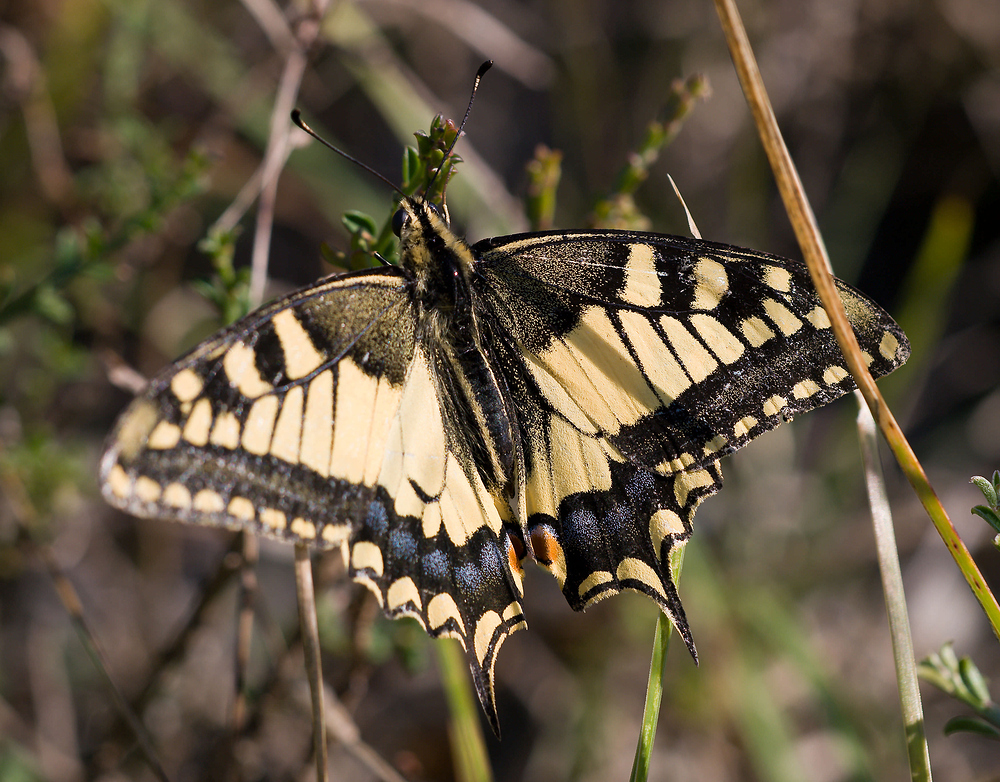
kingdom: Animalia
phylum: Arthropoda
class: Insecta
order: Lepidoptera
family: Papilionidae
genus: Papilio
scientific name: Papilio machaon
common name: Swallowtail
